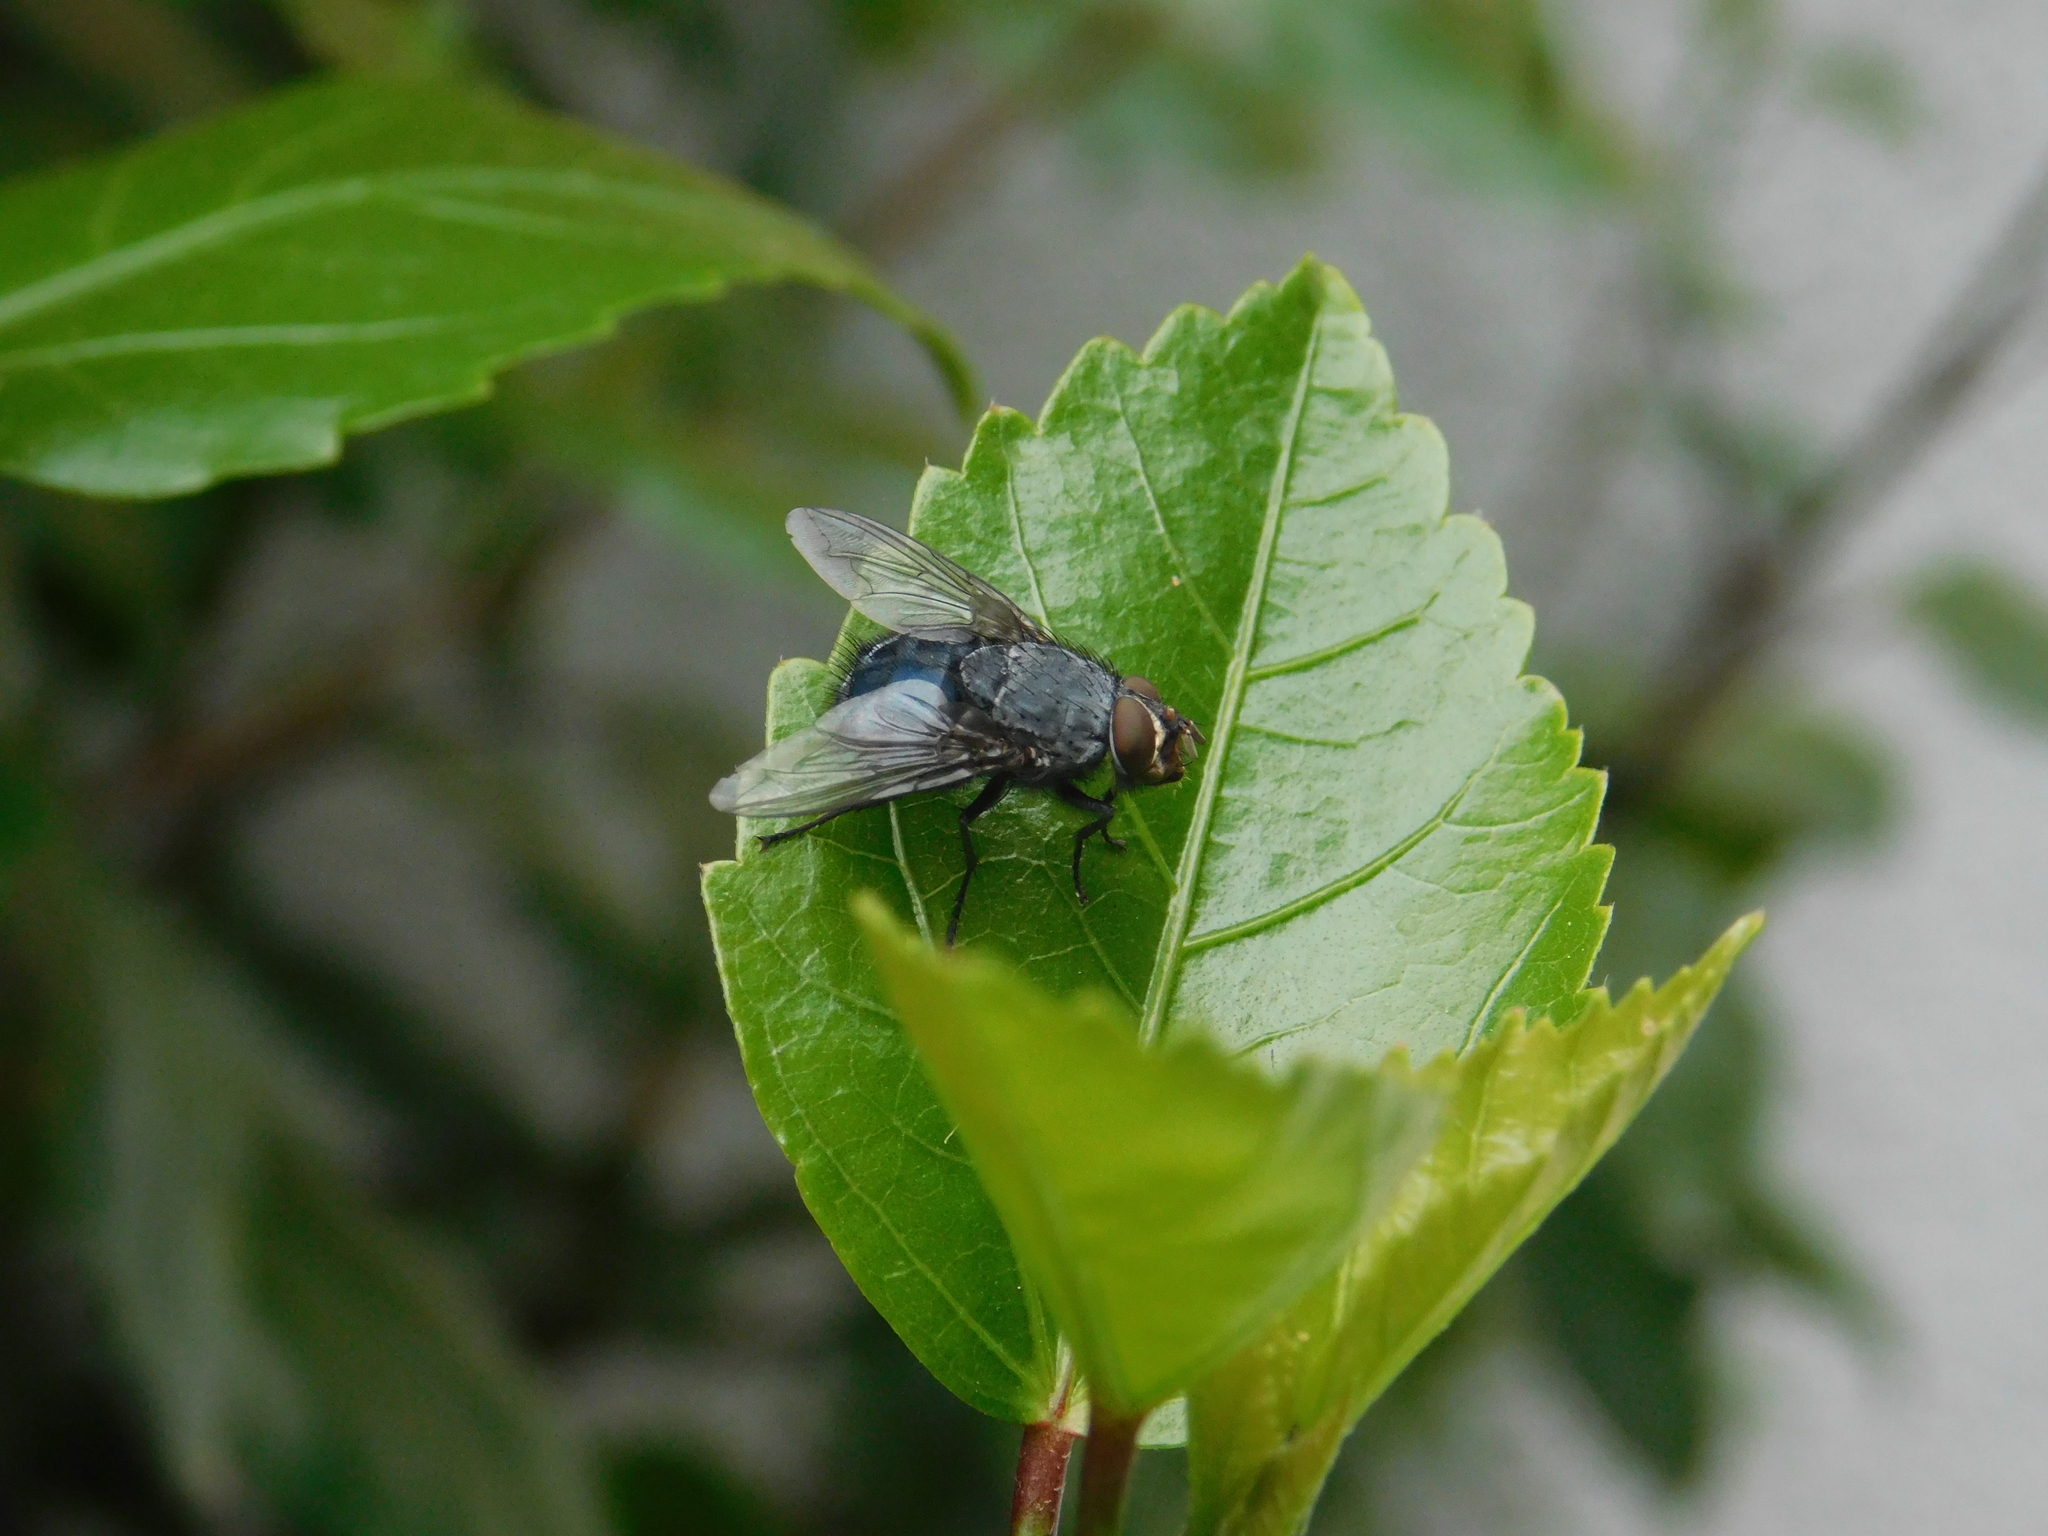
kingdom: Animalia
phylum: Arthropoda
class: Insecta
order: Diptera
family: Calliphoridae
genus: Calliphora
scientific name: Calliphora vicina
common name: Common blow flie
